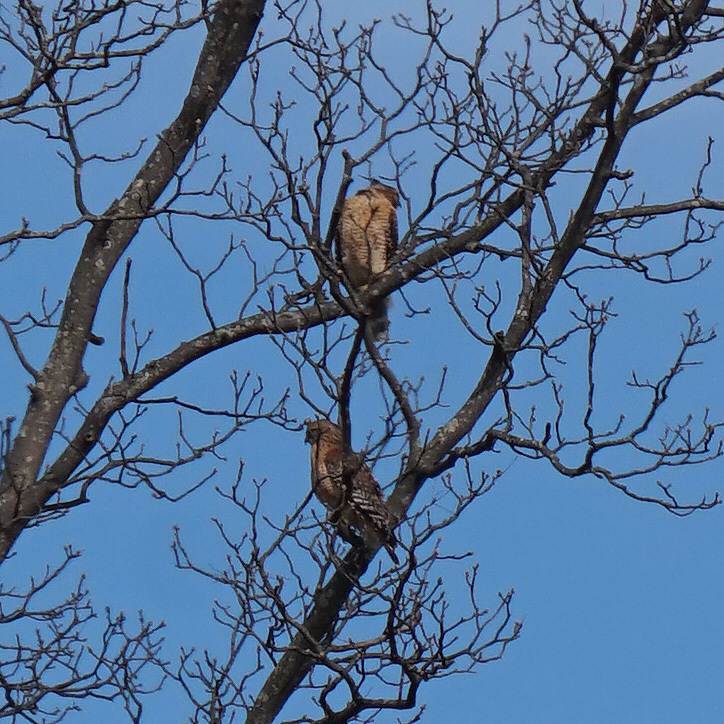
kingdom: Animalia
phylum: Chordata
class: Aves
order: Accipitriformes
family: Accipitridae
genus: Buteo
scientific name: Buteo lineatus
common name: Red-shouldered hawk
